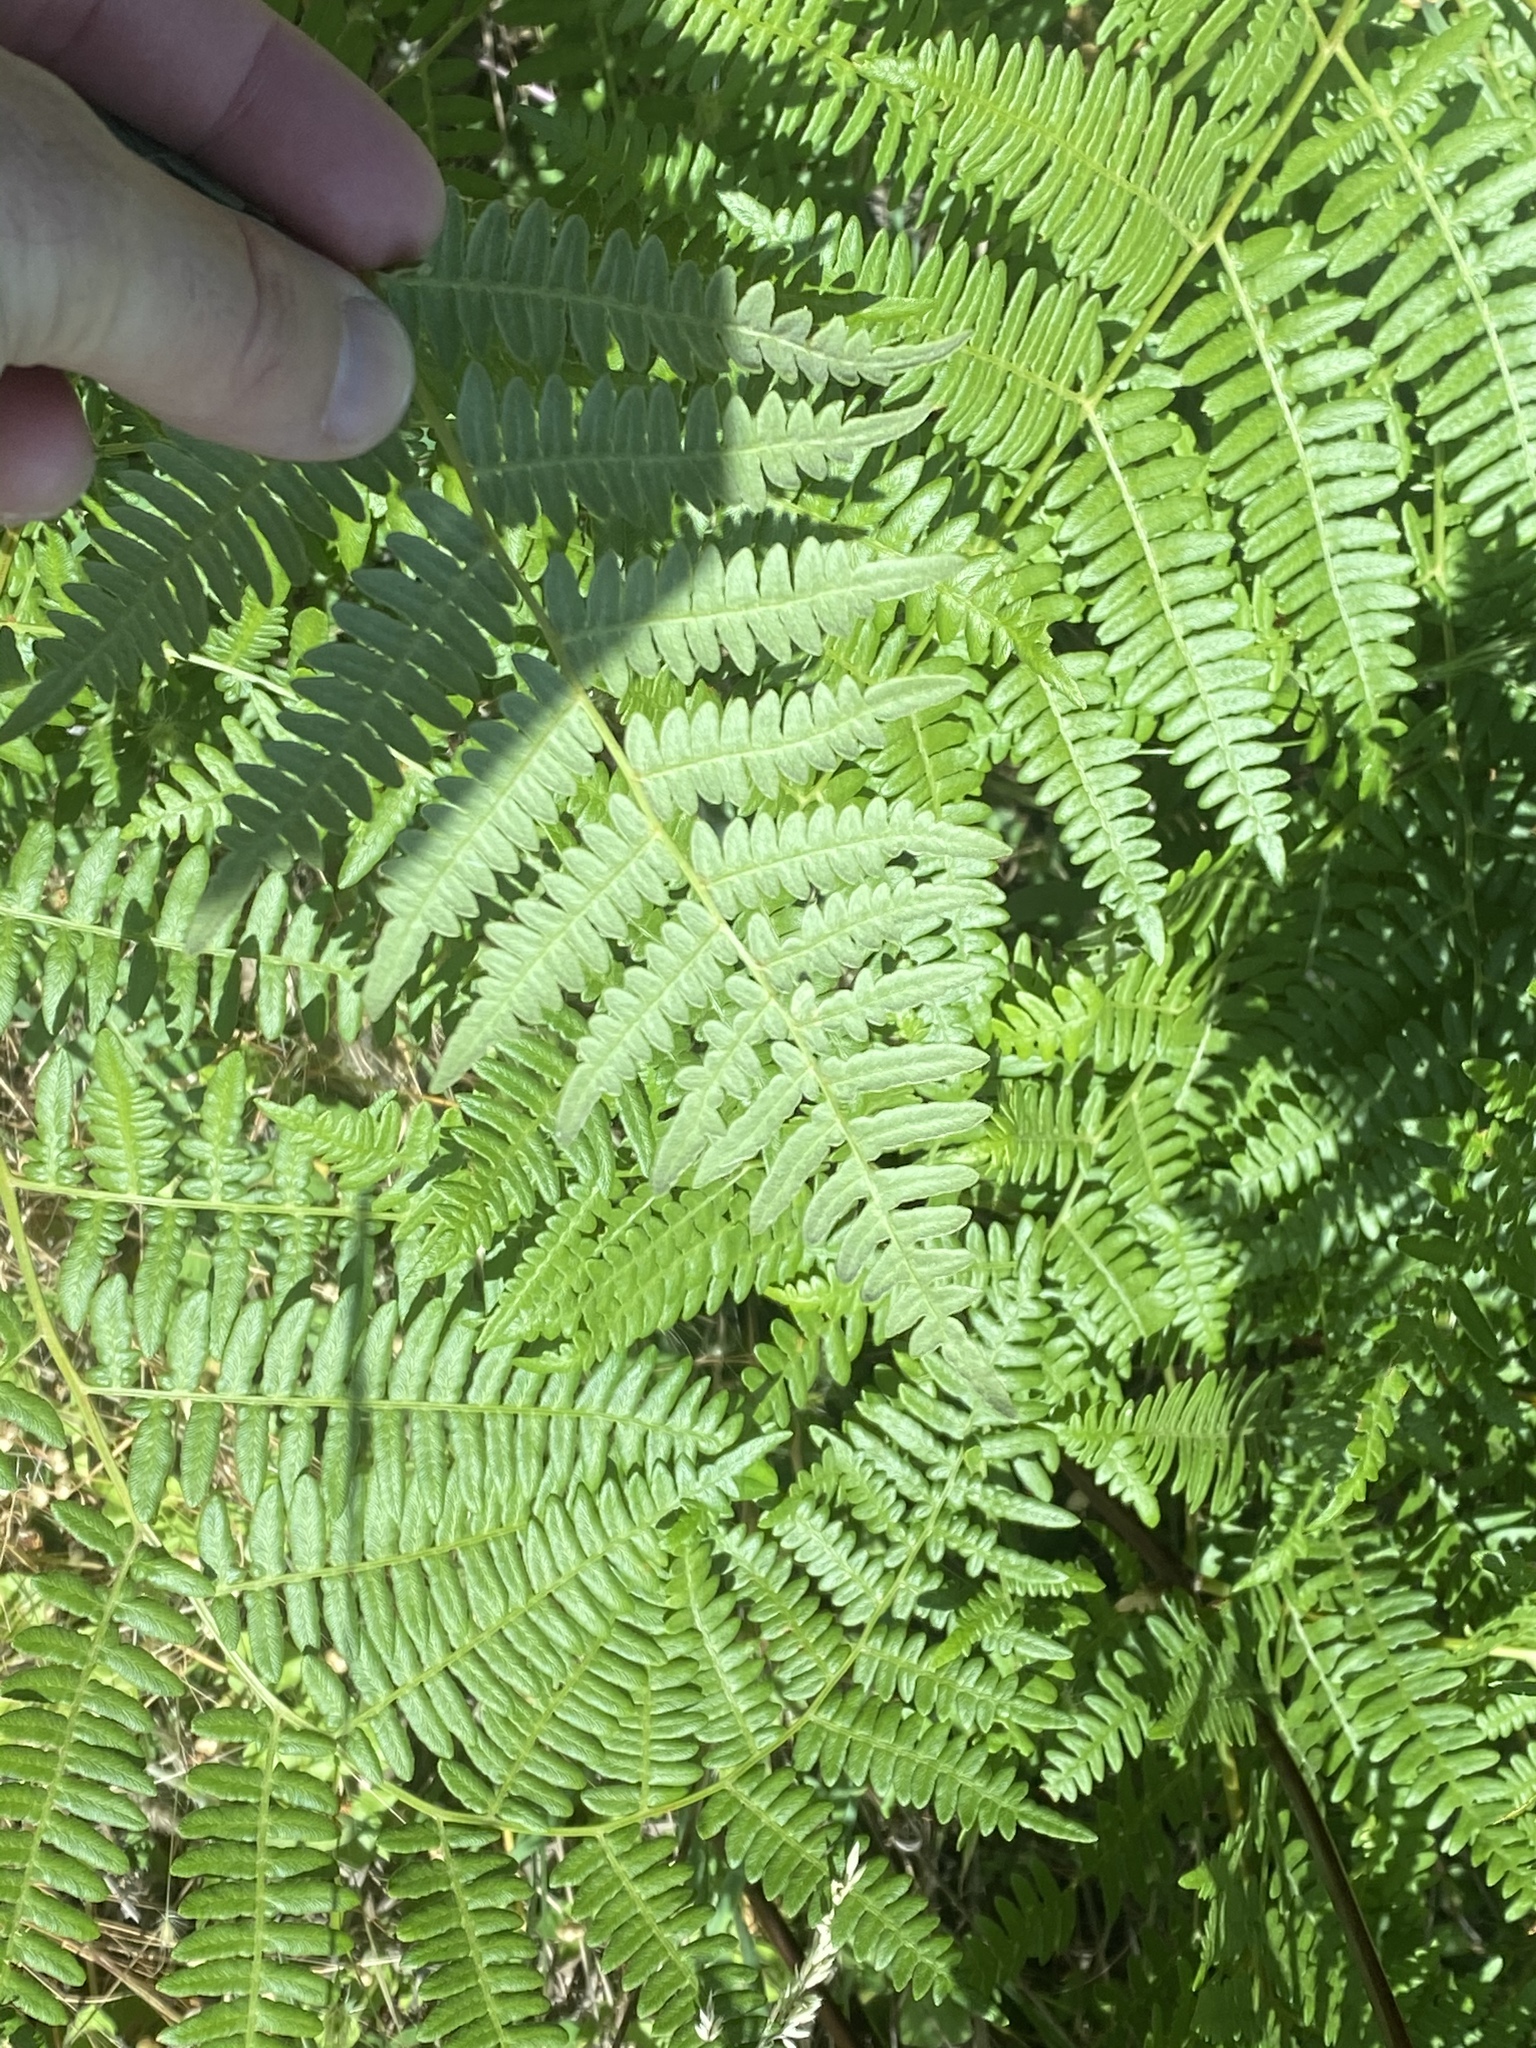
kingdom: Plantae
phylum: Tracheophyta
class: Polypodiopsida
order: Polypodiales
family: Dennstaedtiaceae
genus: Pteridium
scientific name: Pteridium aquilinum
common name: Bracken
